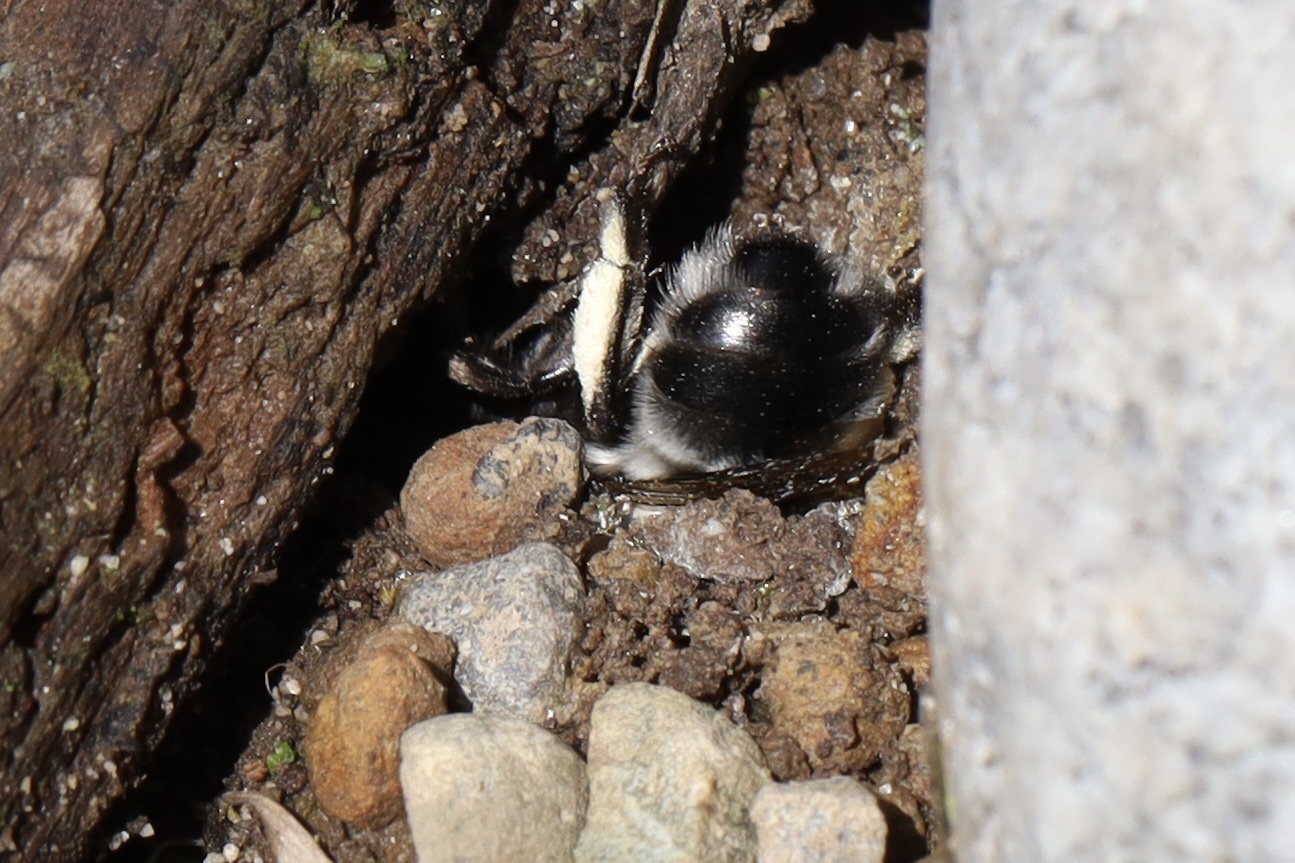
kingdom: Animalia
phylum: Arthropoda
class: Insecta
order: Hymenoptera
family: Apidae
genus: Anthophora
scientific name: Anthophora pacifica
